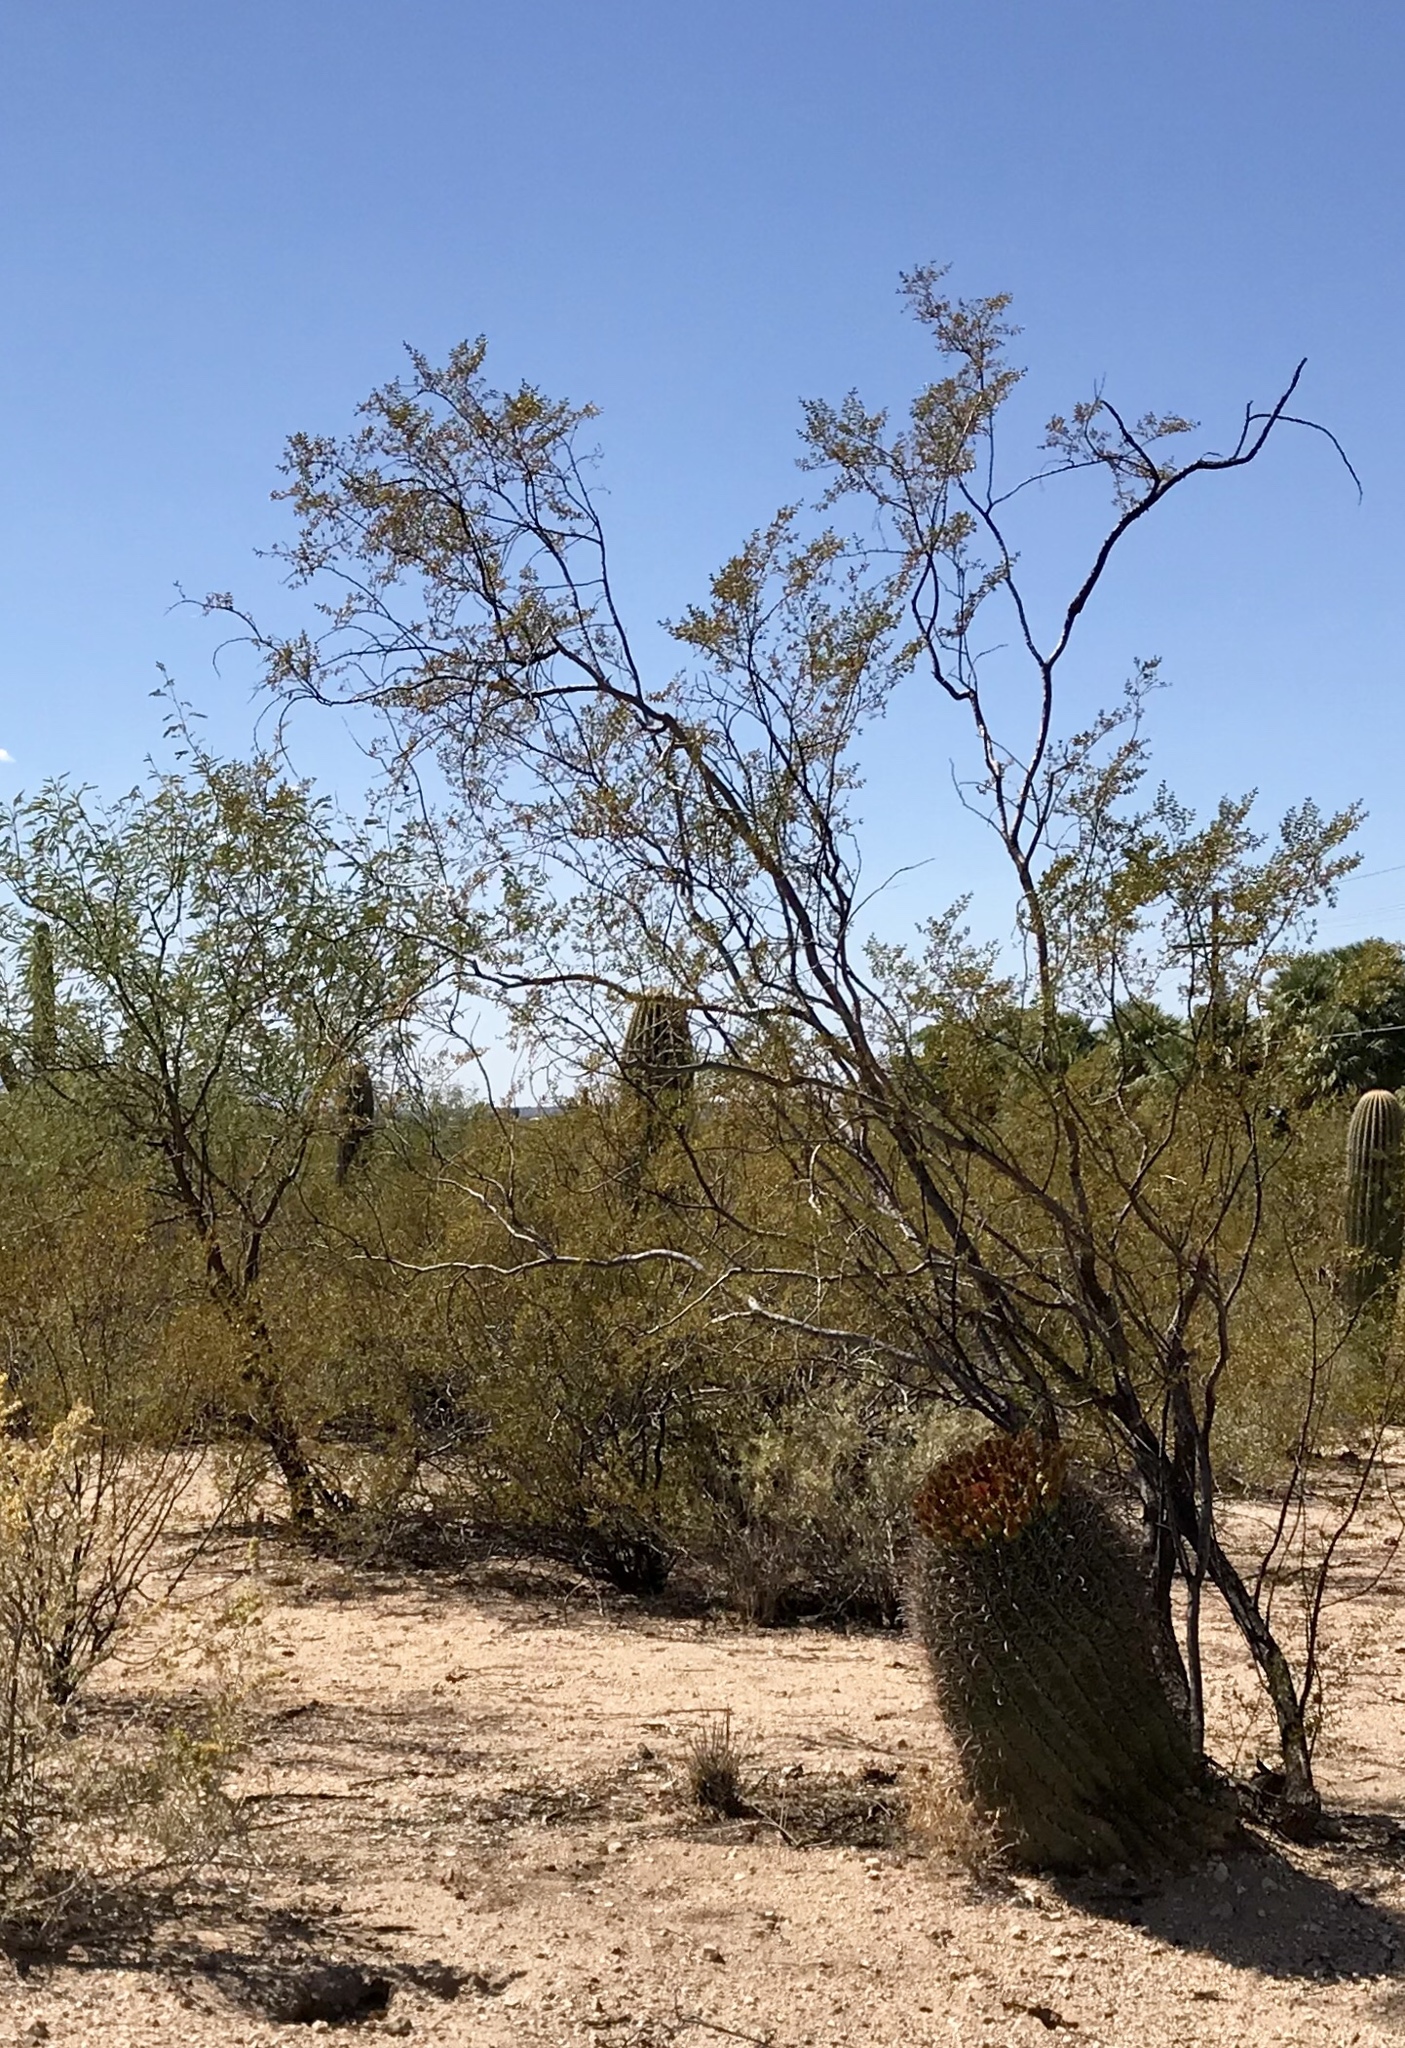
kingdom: Plantae
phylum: Tracheophyta
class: Magnoliopsida
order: Zygophyllales
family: Zygophyllaceae
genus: Larrea
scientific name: Larrea tridentata
